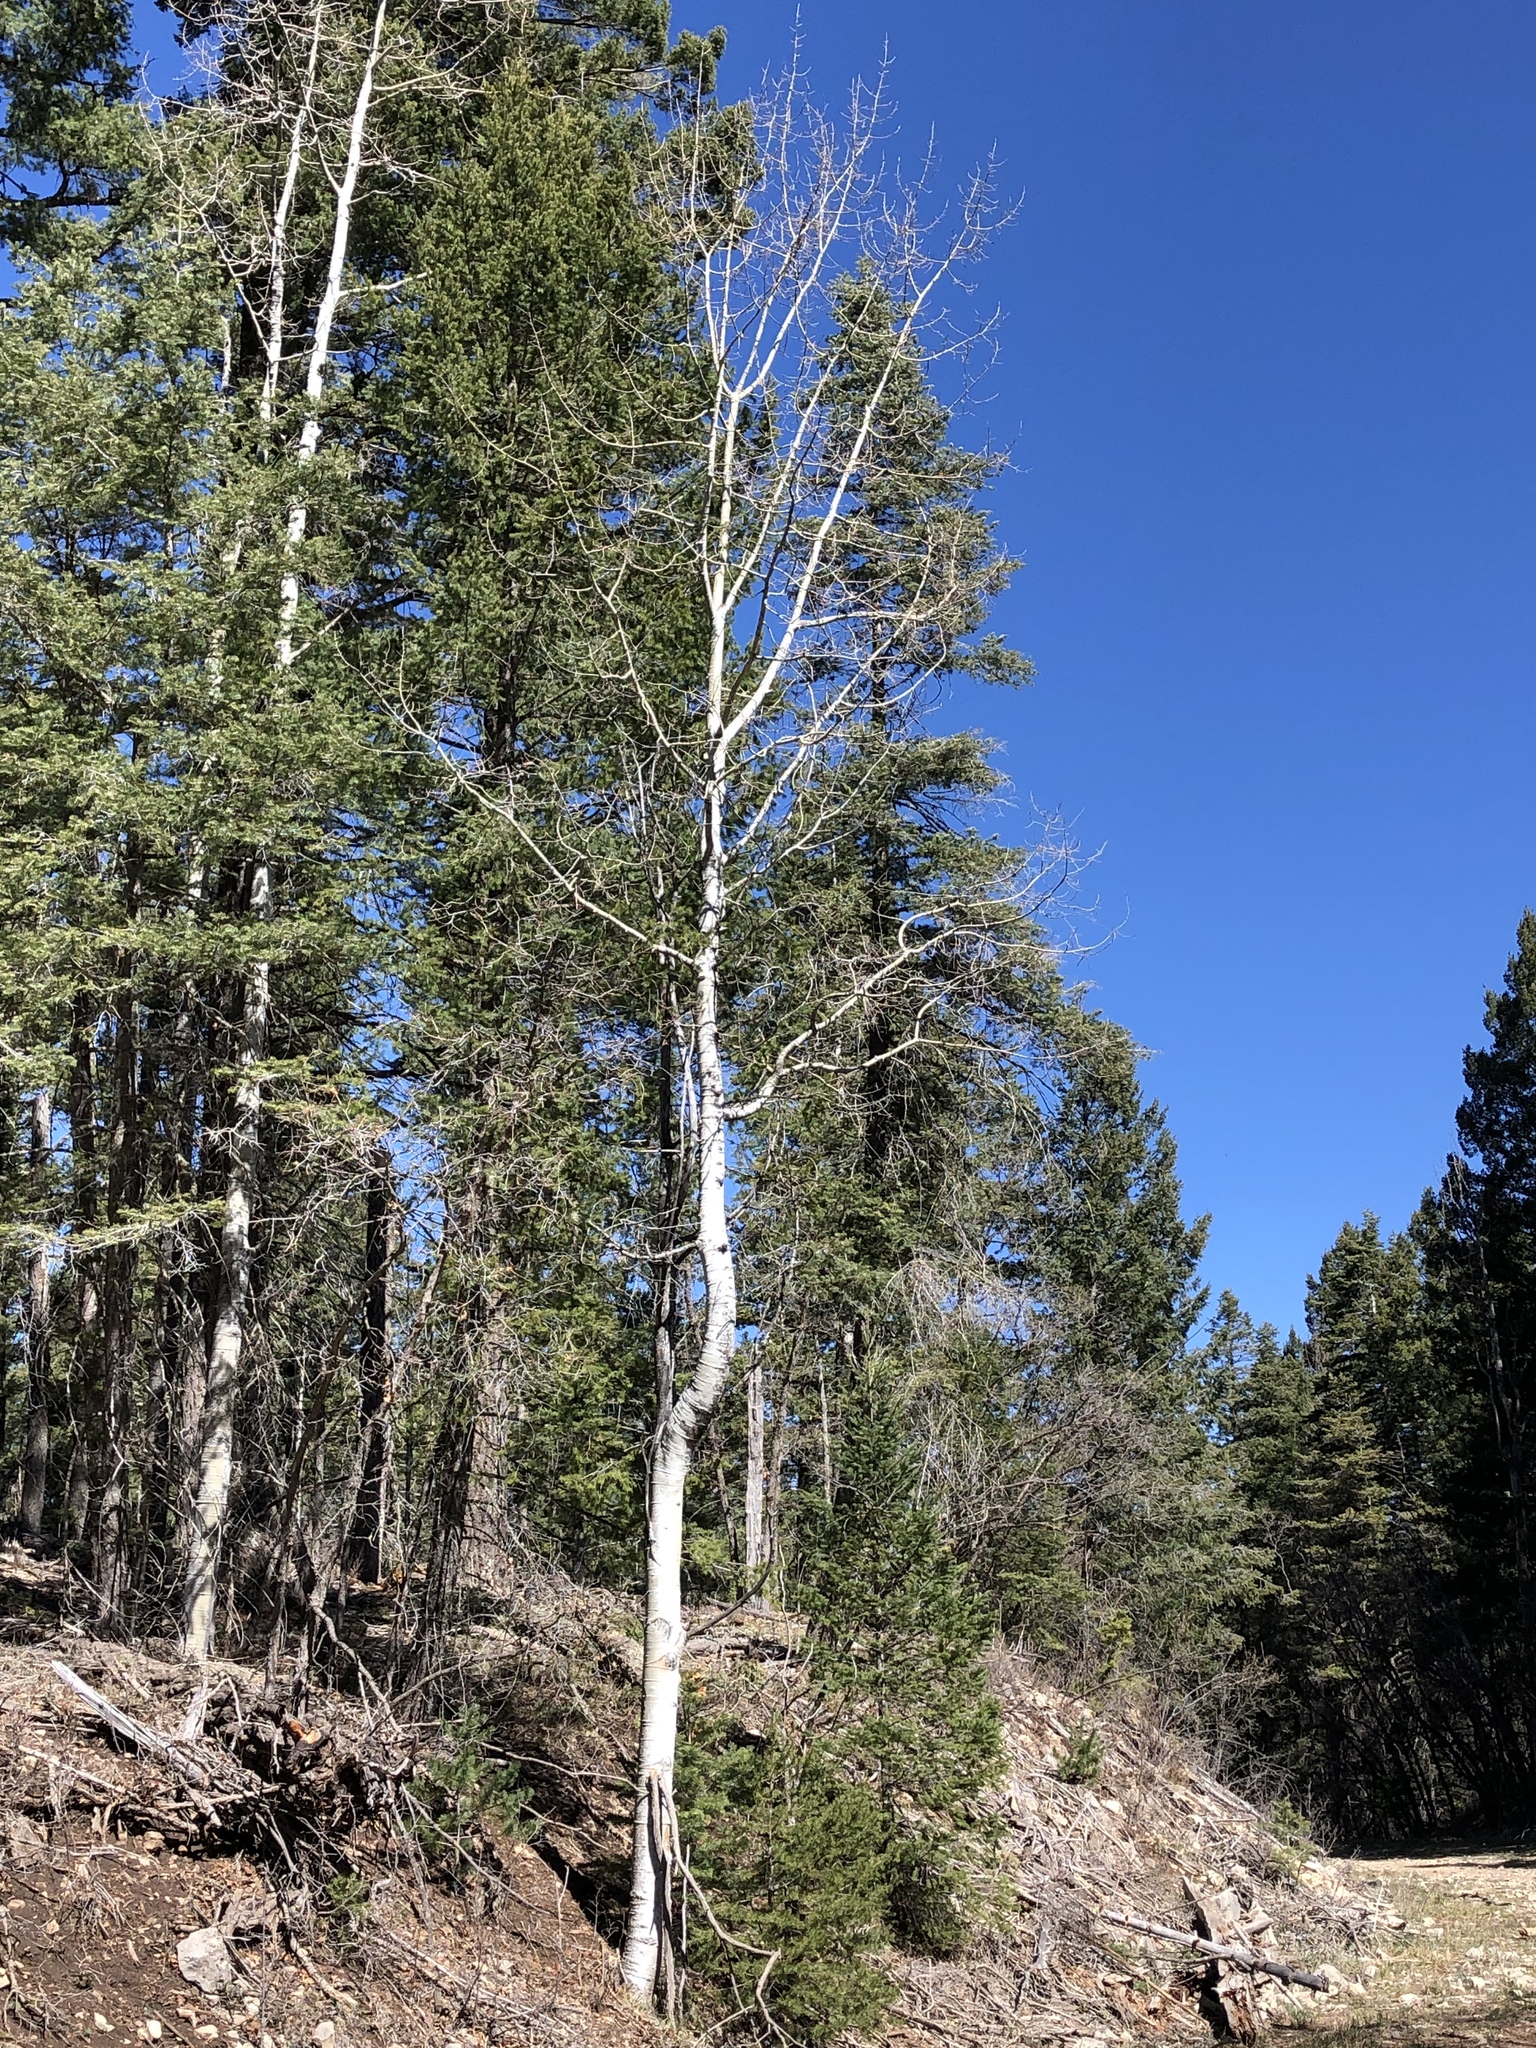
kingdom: Plantae
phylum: Tracheophyta
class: Magnoliopsida
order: Malpighiales
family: Salicaceae
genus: Populus
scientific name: Populus tremuloides
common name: Quaking aspen
